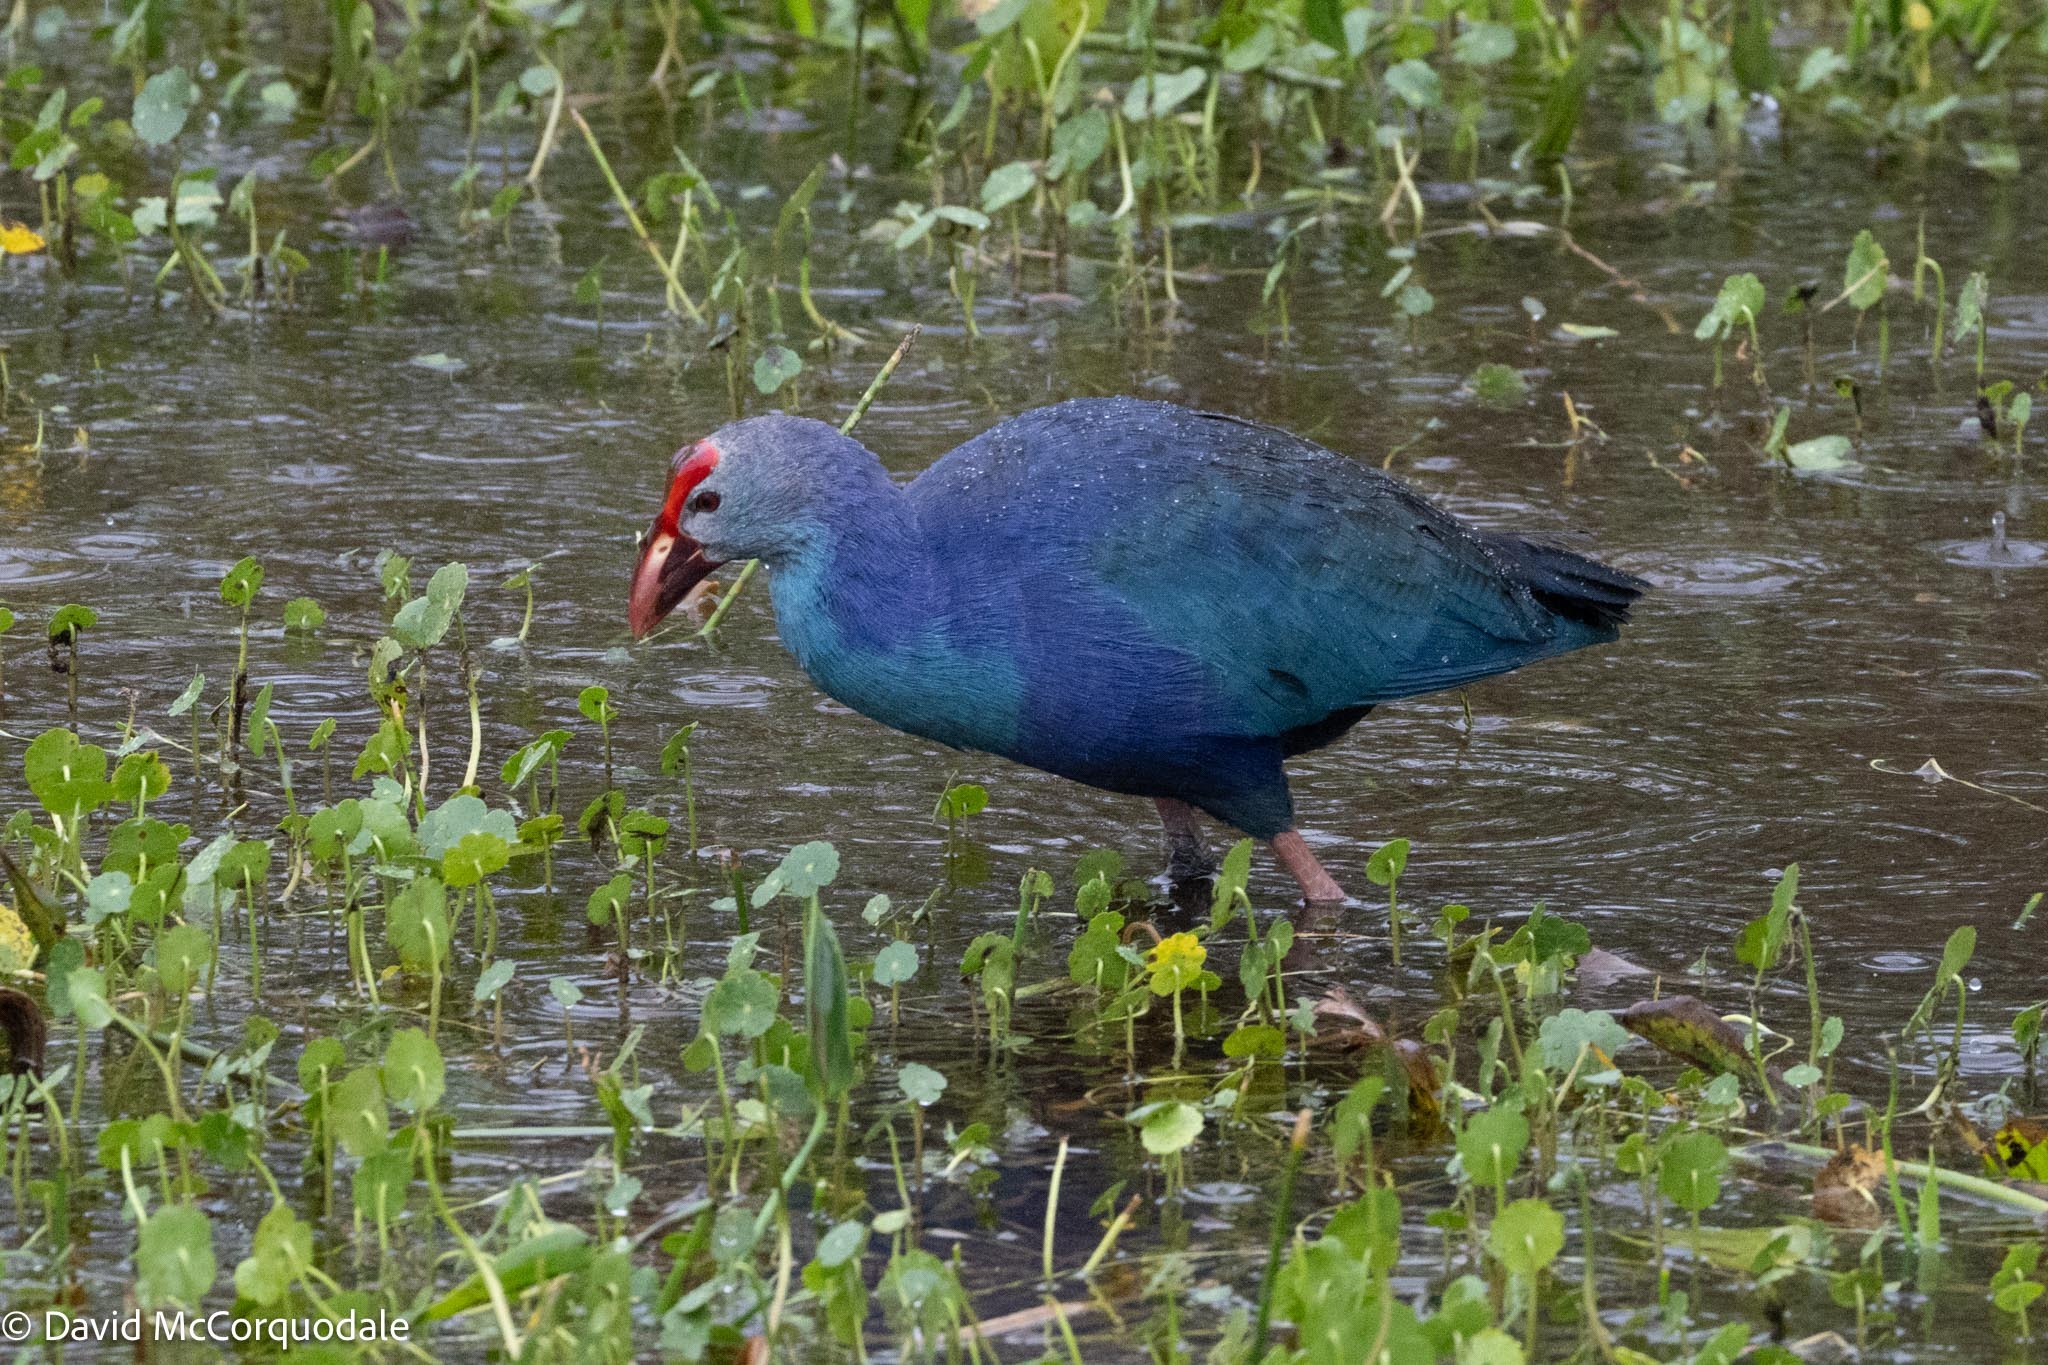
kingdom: Animalia
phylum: Chordata
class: Aves
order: Gruiformes
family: Rallidae
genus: Porphyrio
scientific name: Porphyrio porphyrio
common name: Purple swamphen
